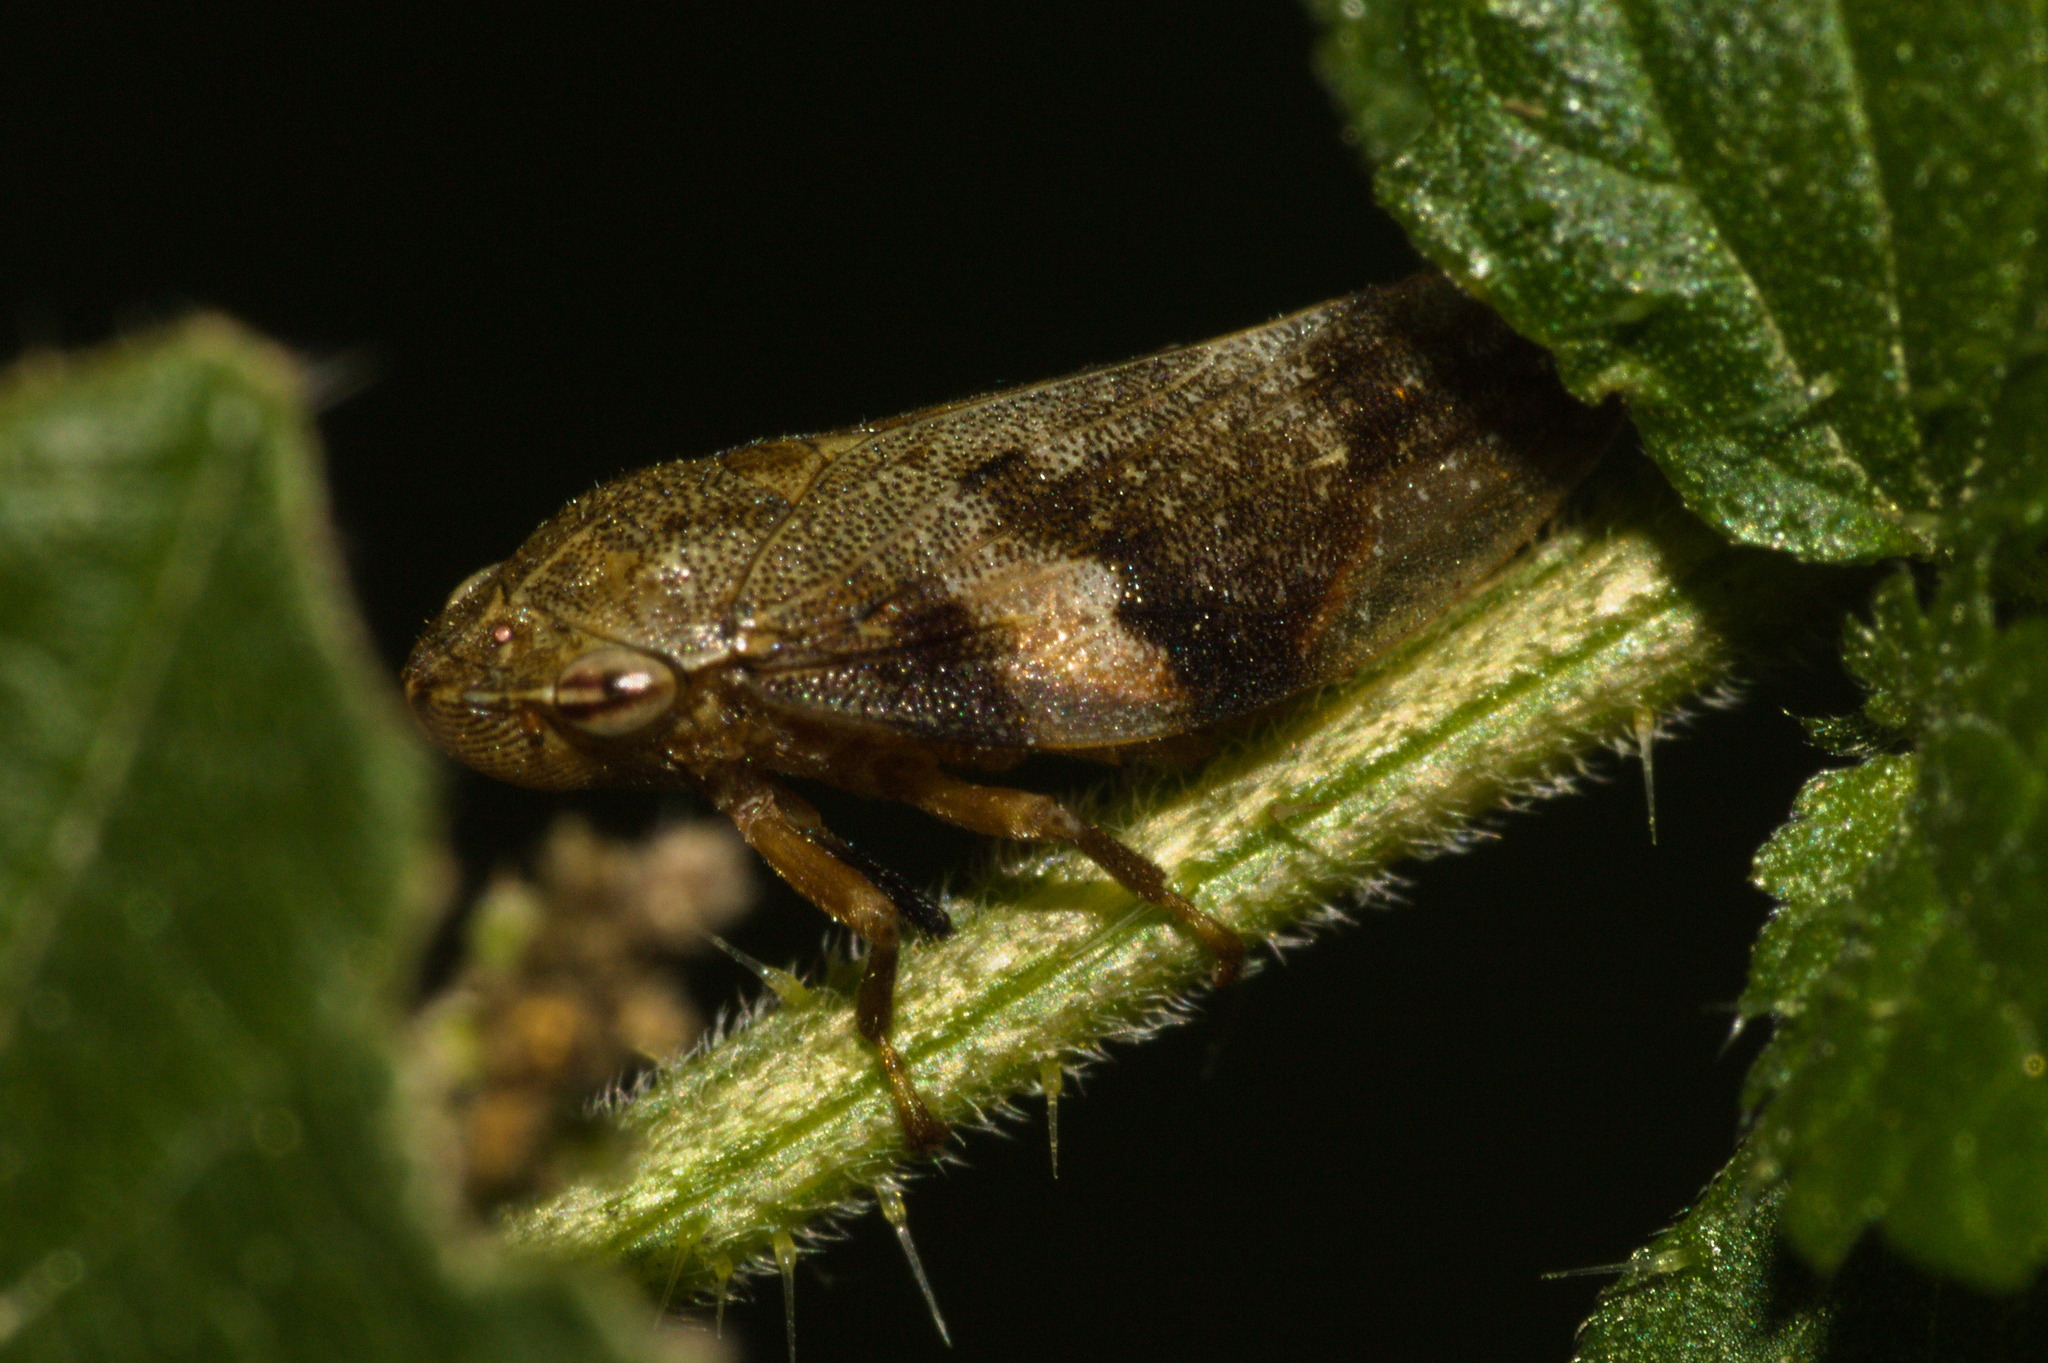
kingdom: Animalia
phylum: Arthropoda
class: Insecta
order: Hemiptera
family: Aphrophoridae
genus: Aphrophora
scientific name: Aphrophora alni
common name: European alder spittlebug
